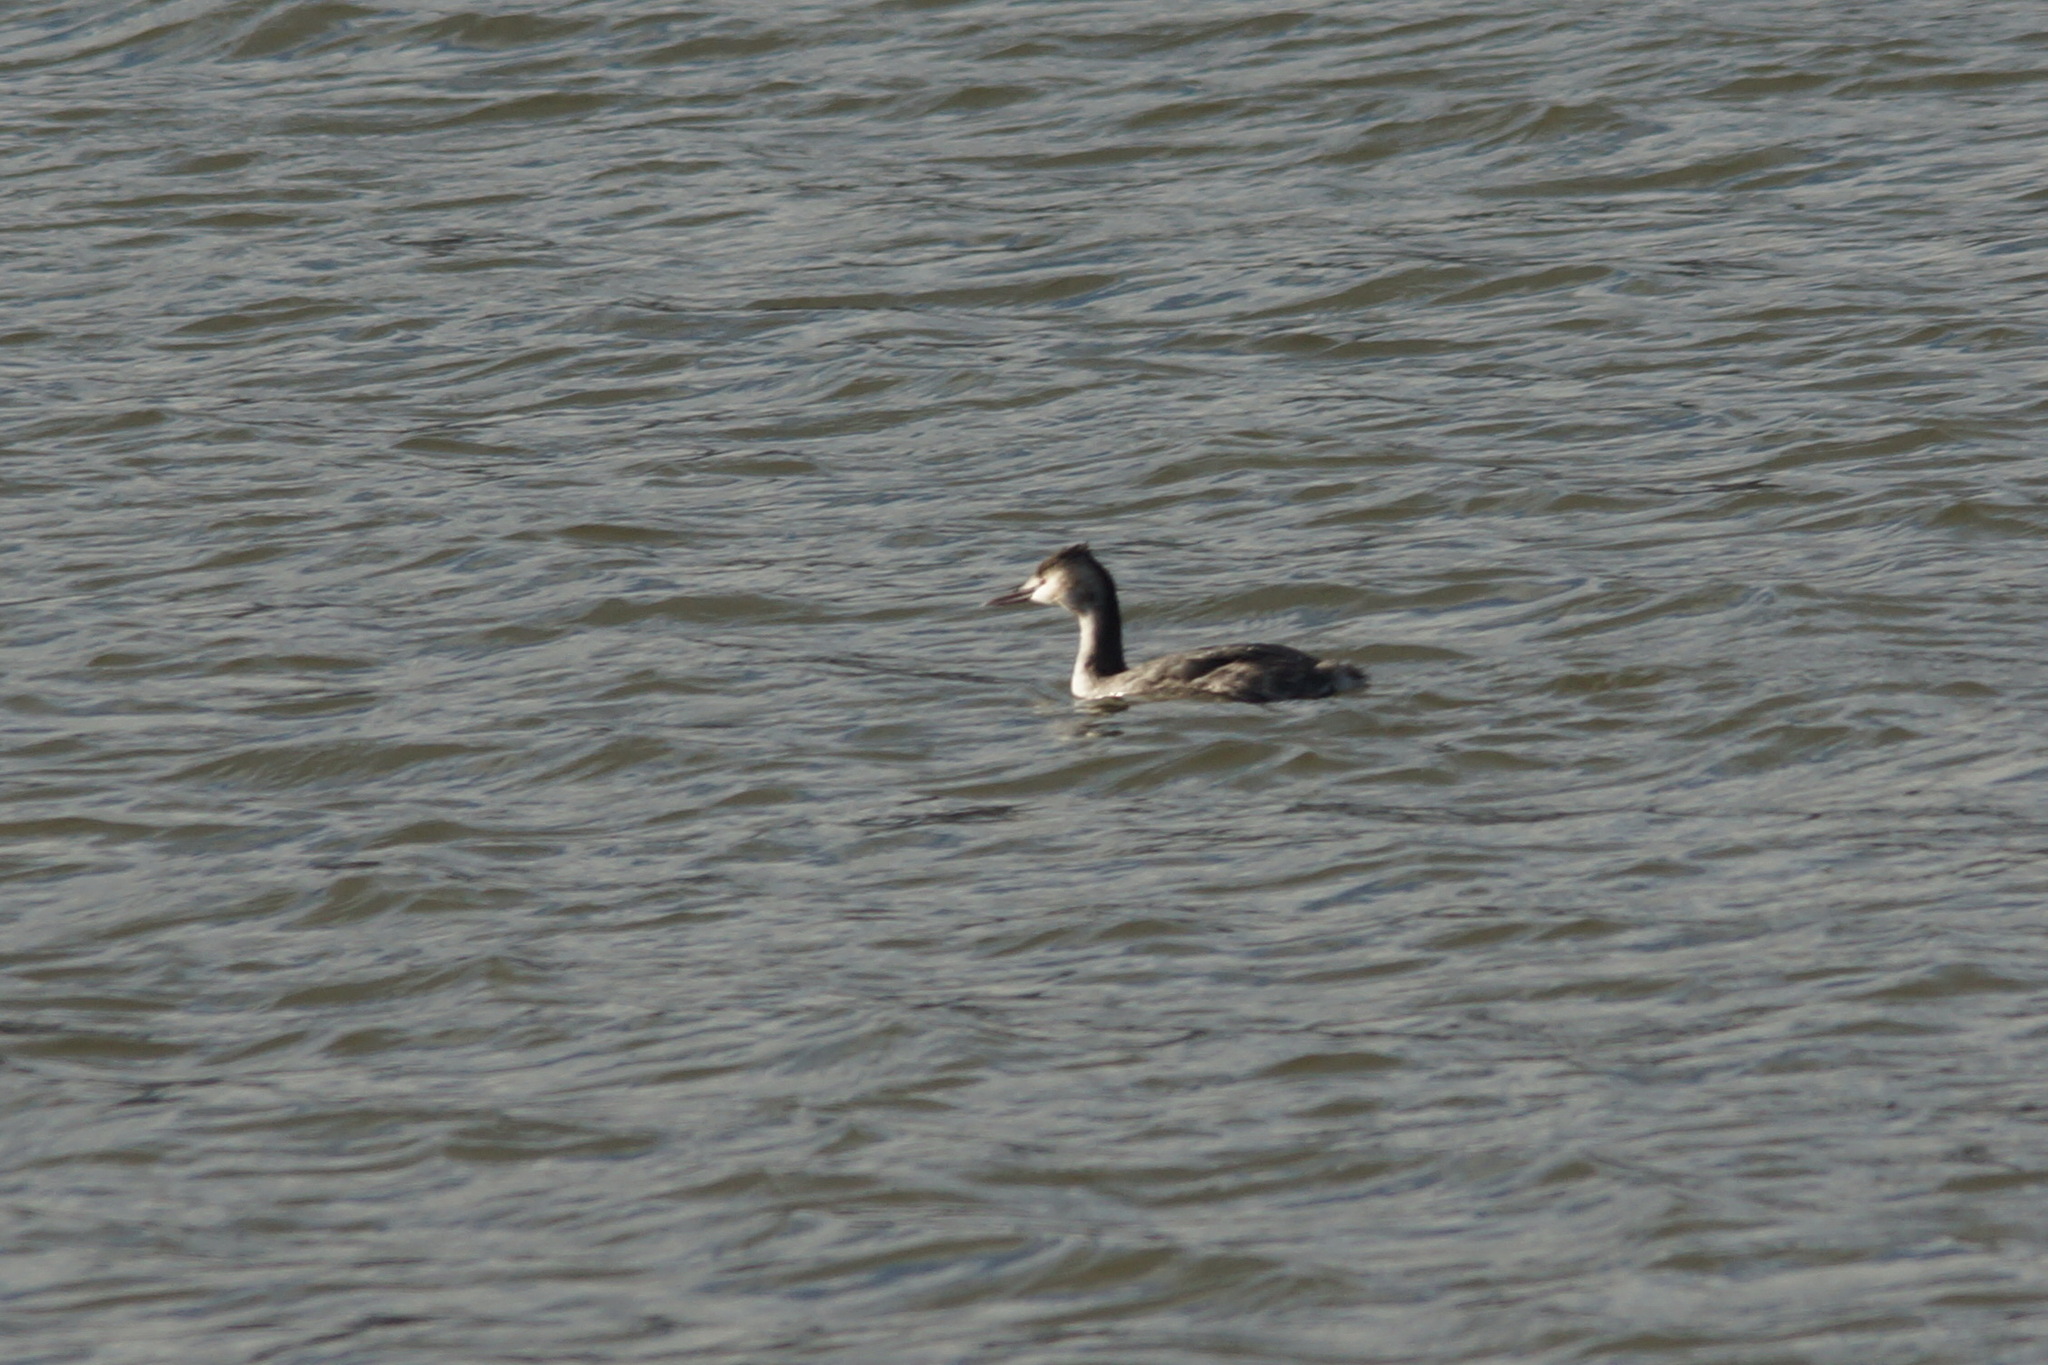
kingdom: Animalia
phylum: Chordata
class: Aves
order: Podicipediformes
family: Podicipedidae
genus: Podiceps
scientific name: Podiceps cristatus
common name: Great crested grebe
